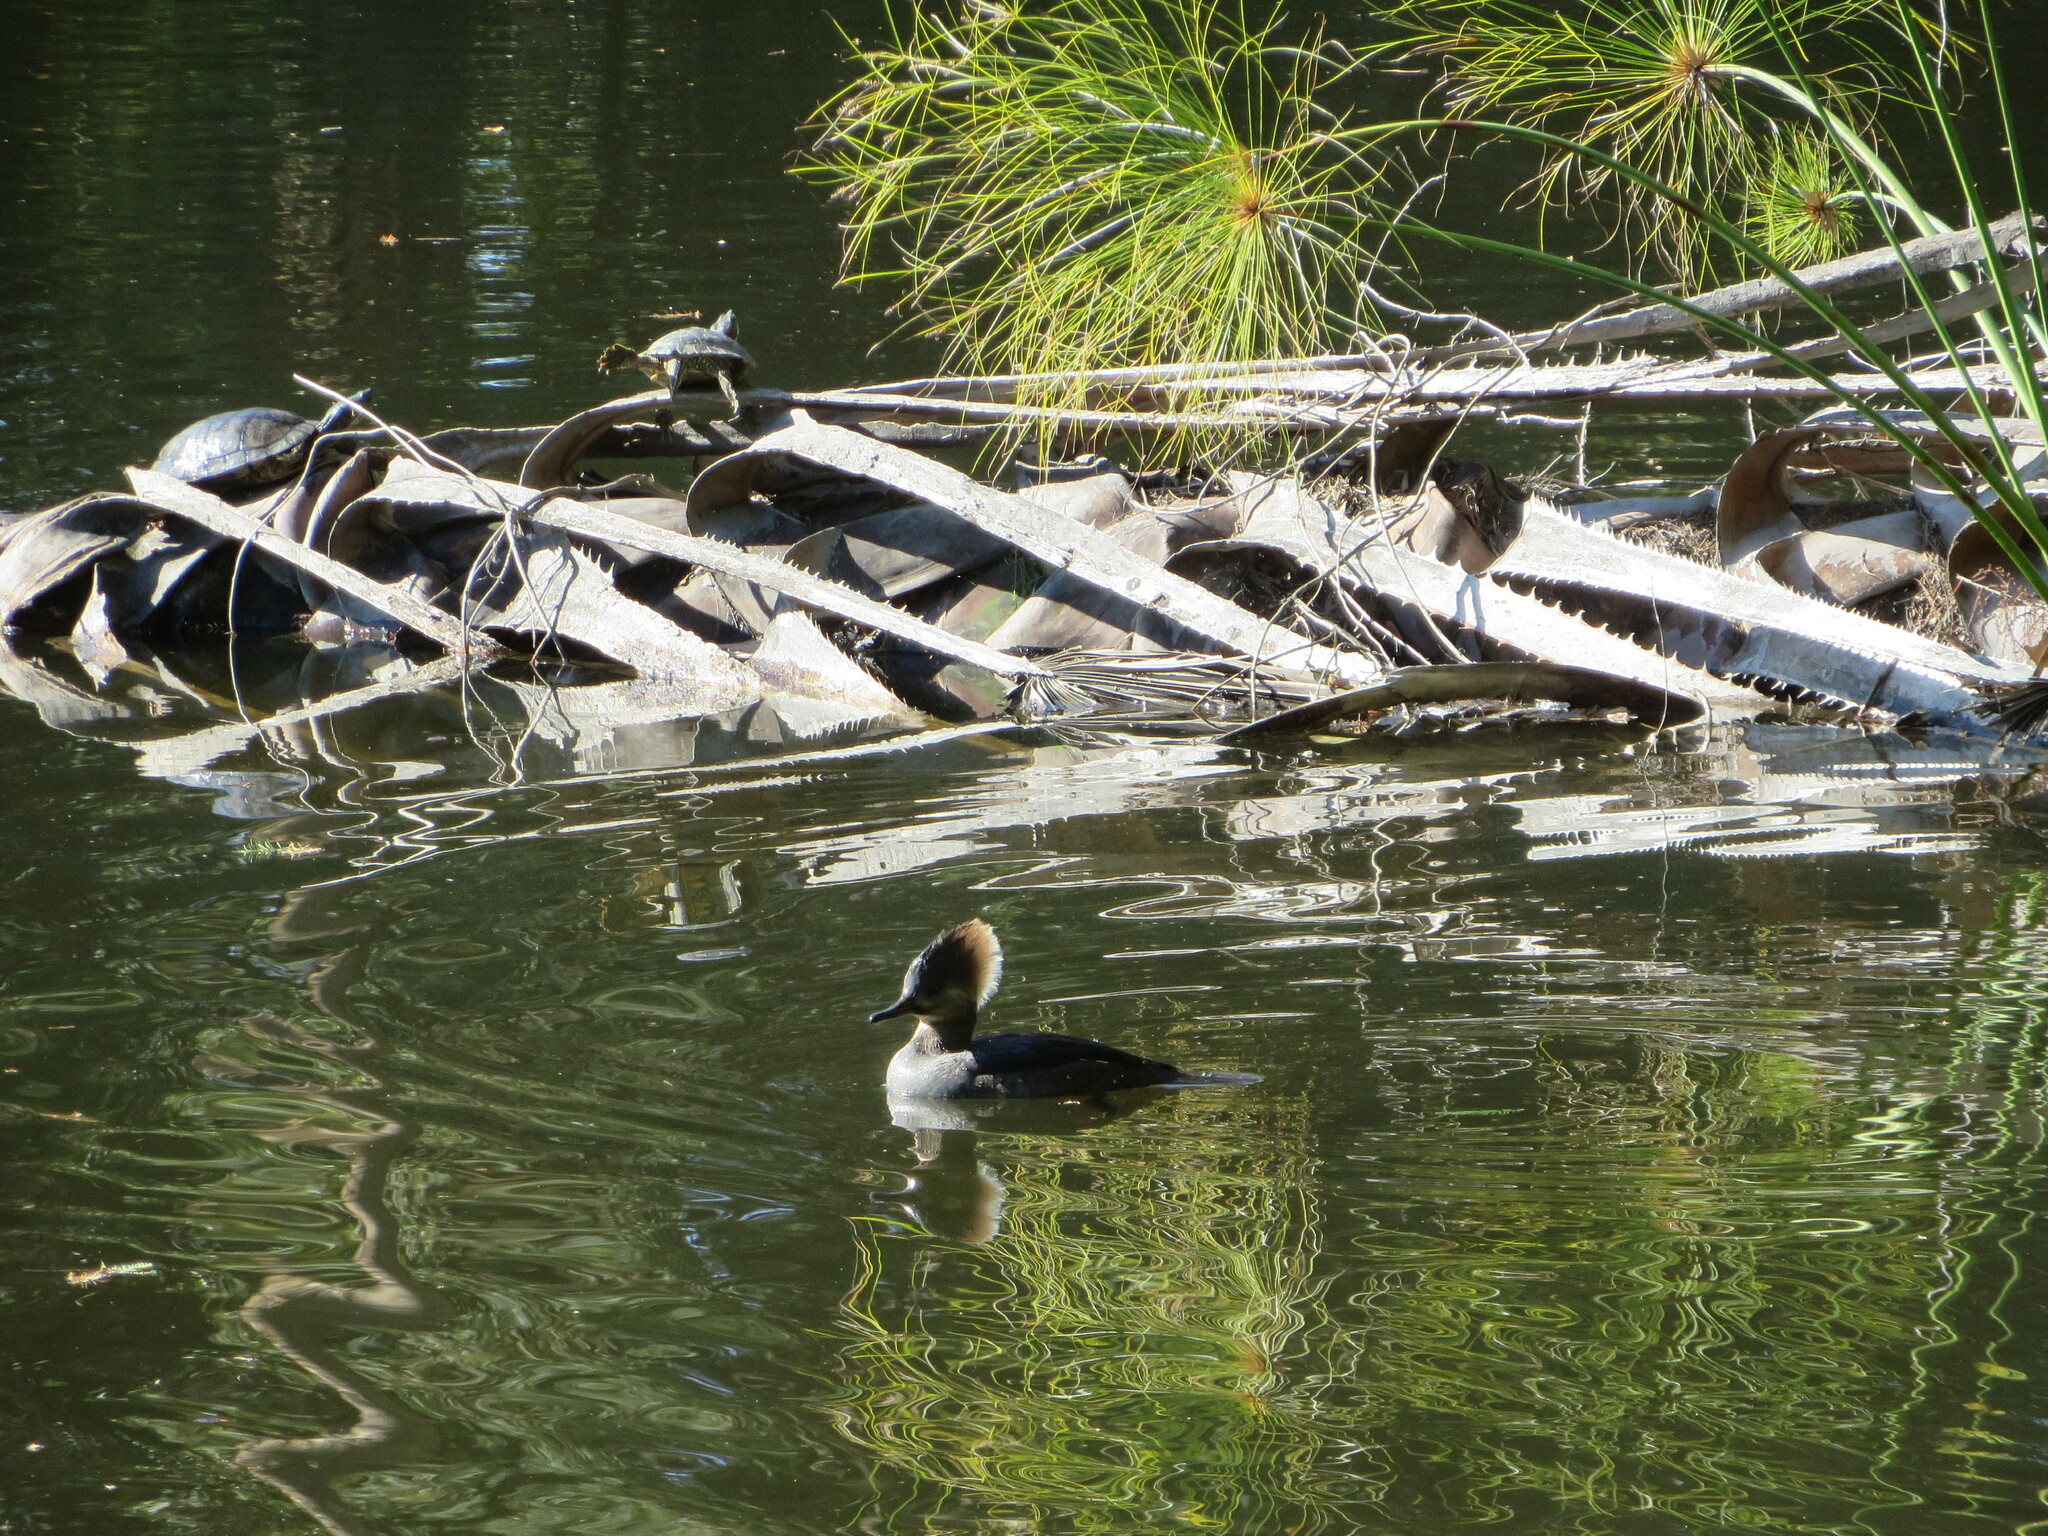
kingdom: Animalia
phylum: Chordata
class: Aves
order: Anseriformes
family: Anatidae
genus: Lophodytes
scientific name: Lophodytes cucullatus
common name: Hooded merganser
